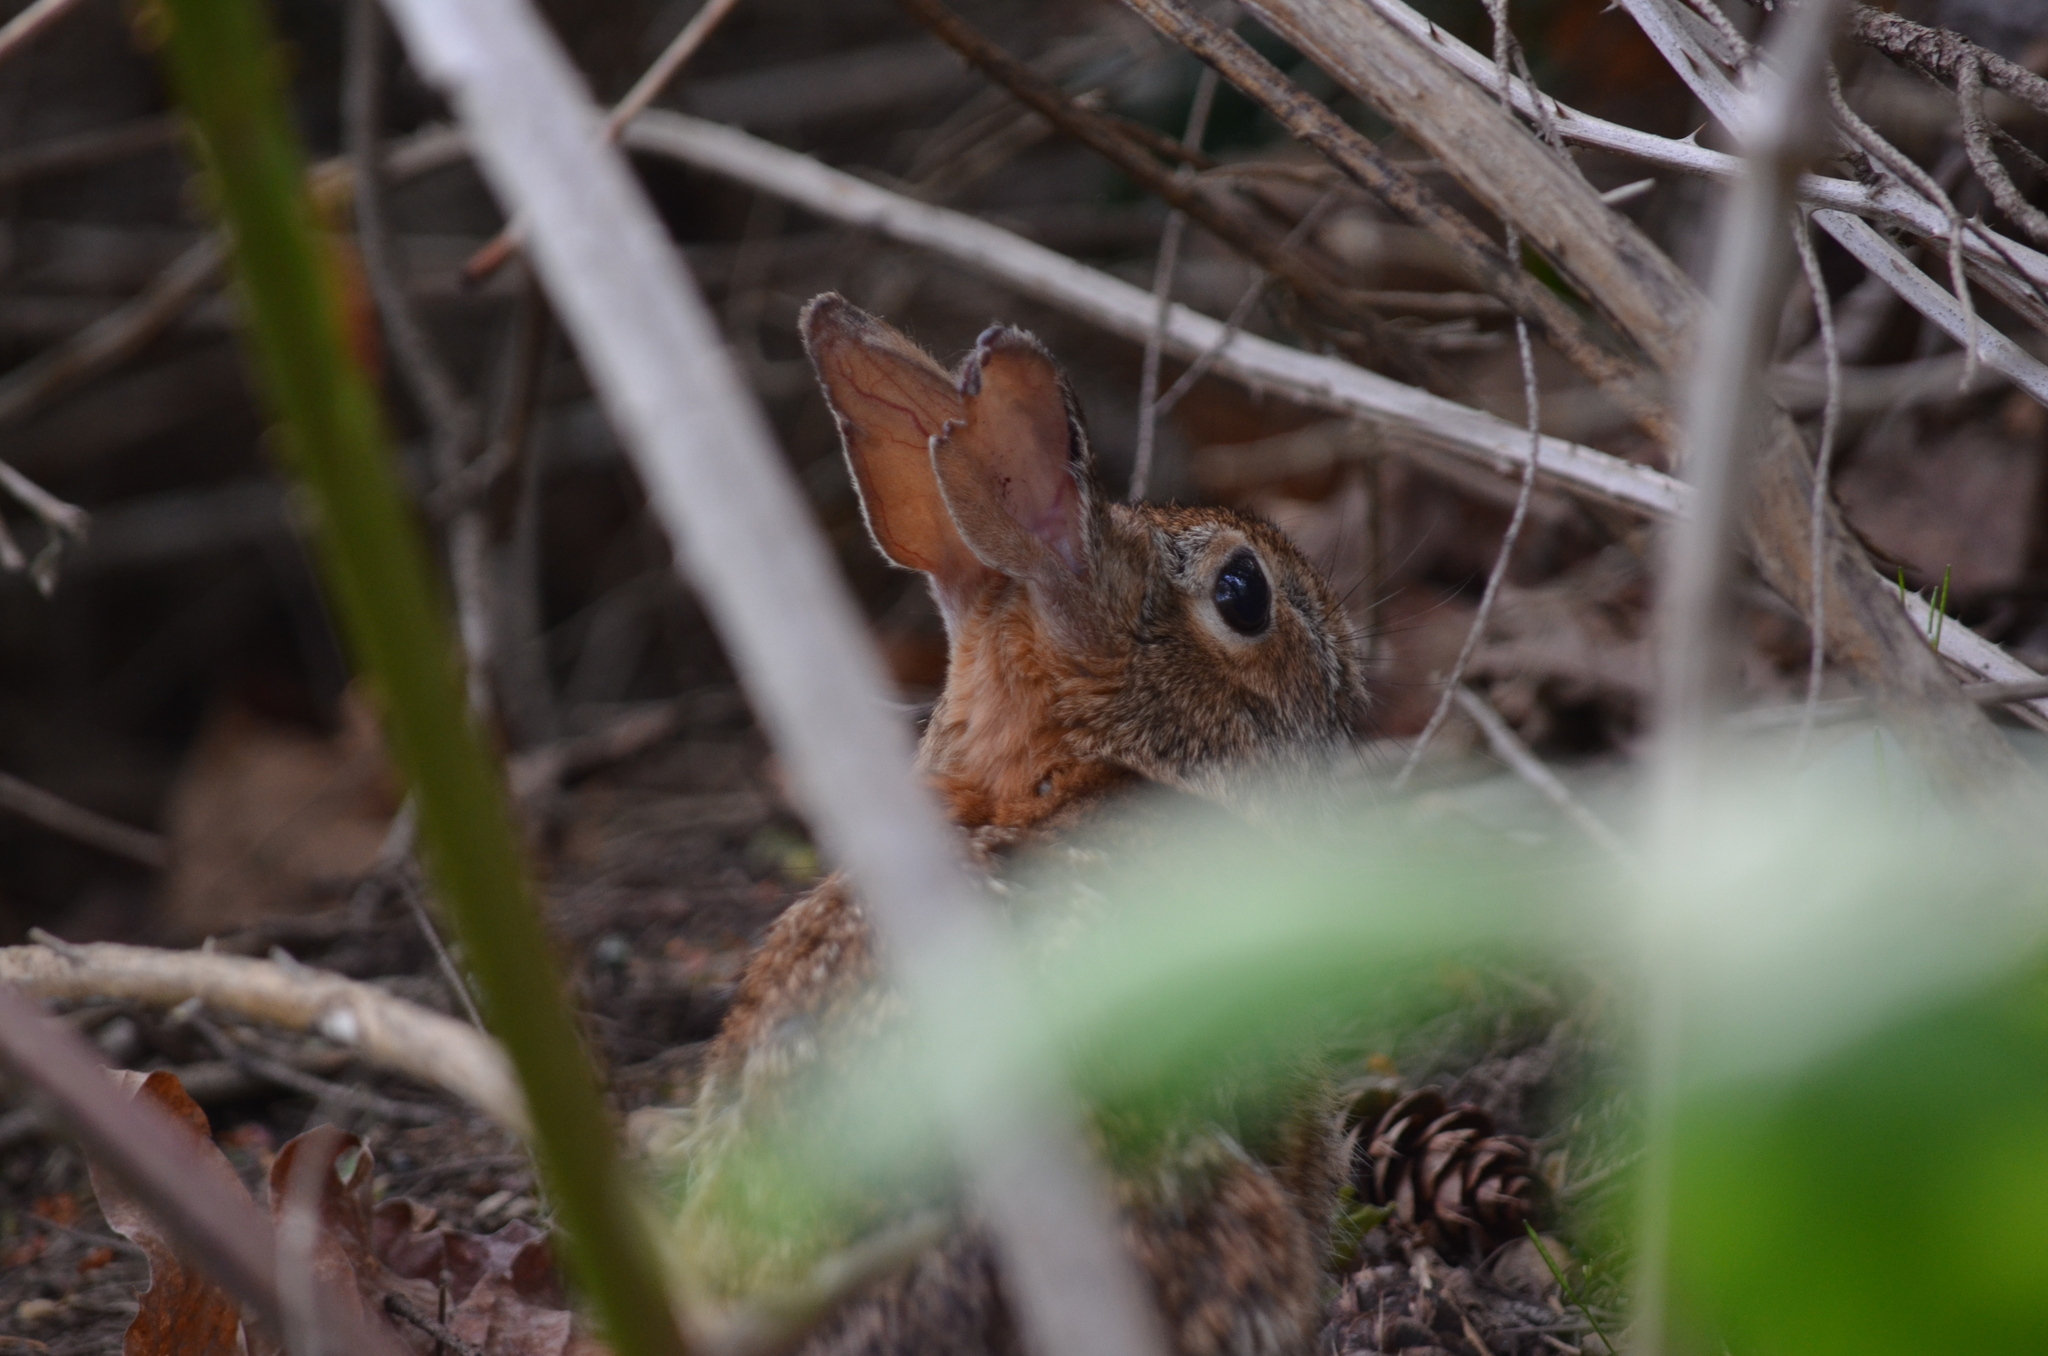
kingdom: Animalia
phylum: Chordata
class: Mammalia
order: Lagomorpha
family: Leporidae
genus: Sylvilagus
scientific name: Sylvilagus floridanus
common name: Eastern cottontail
